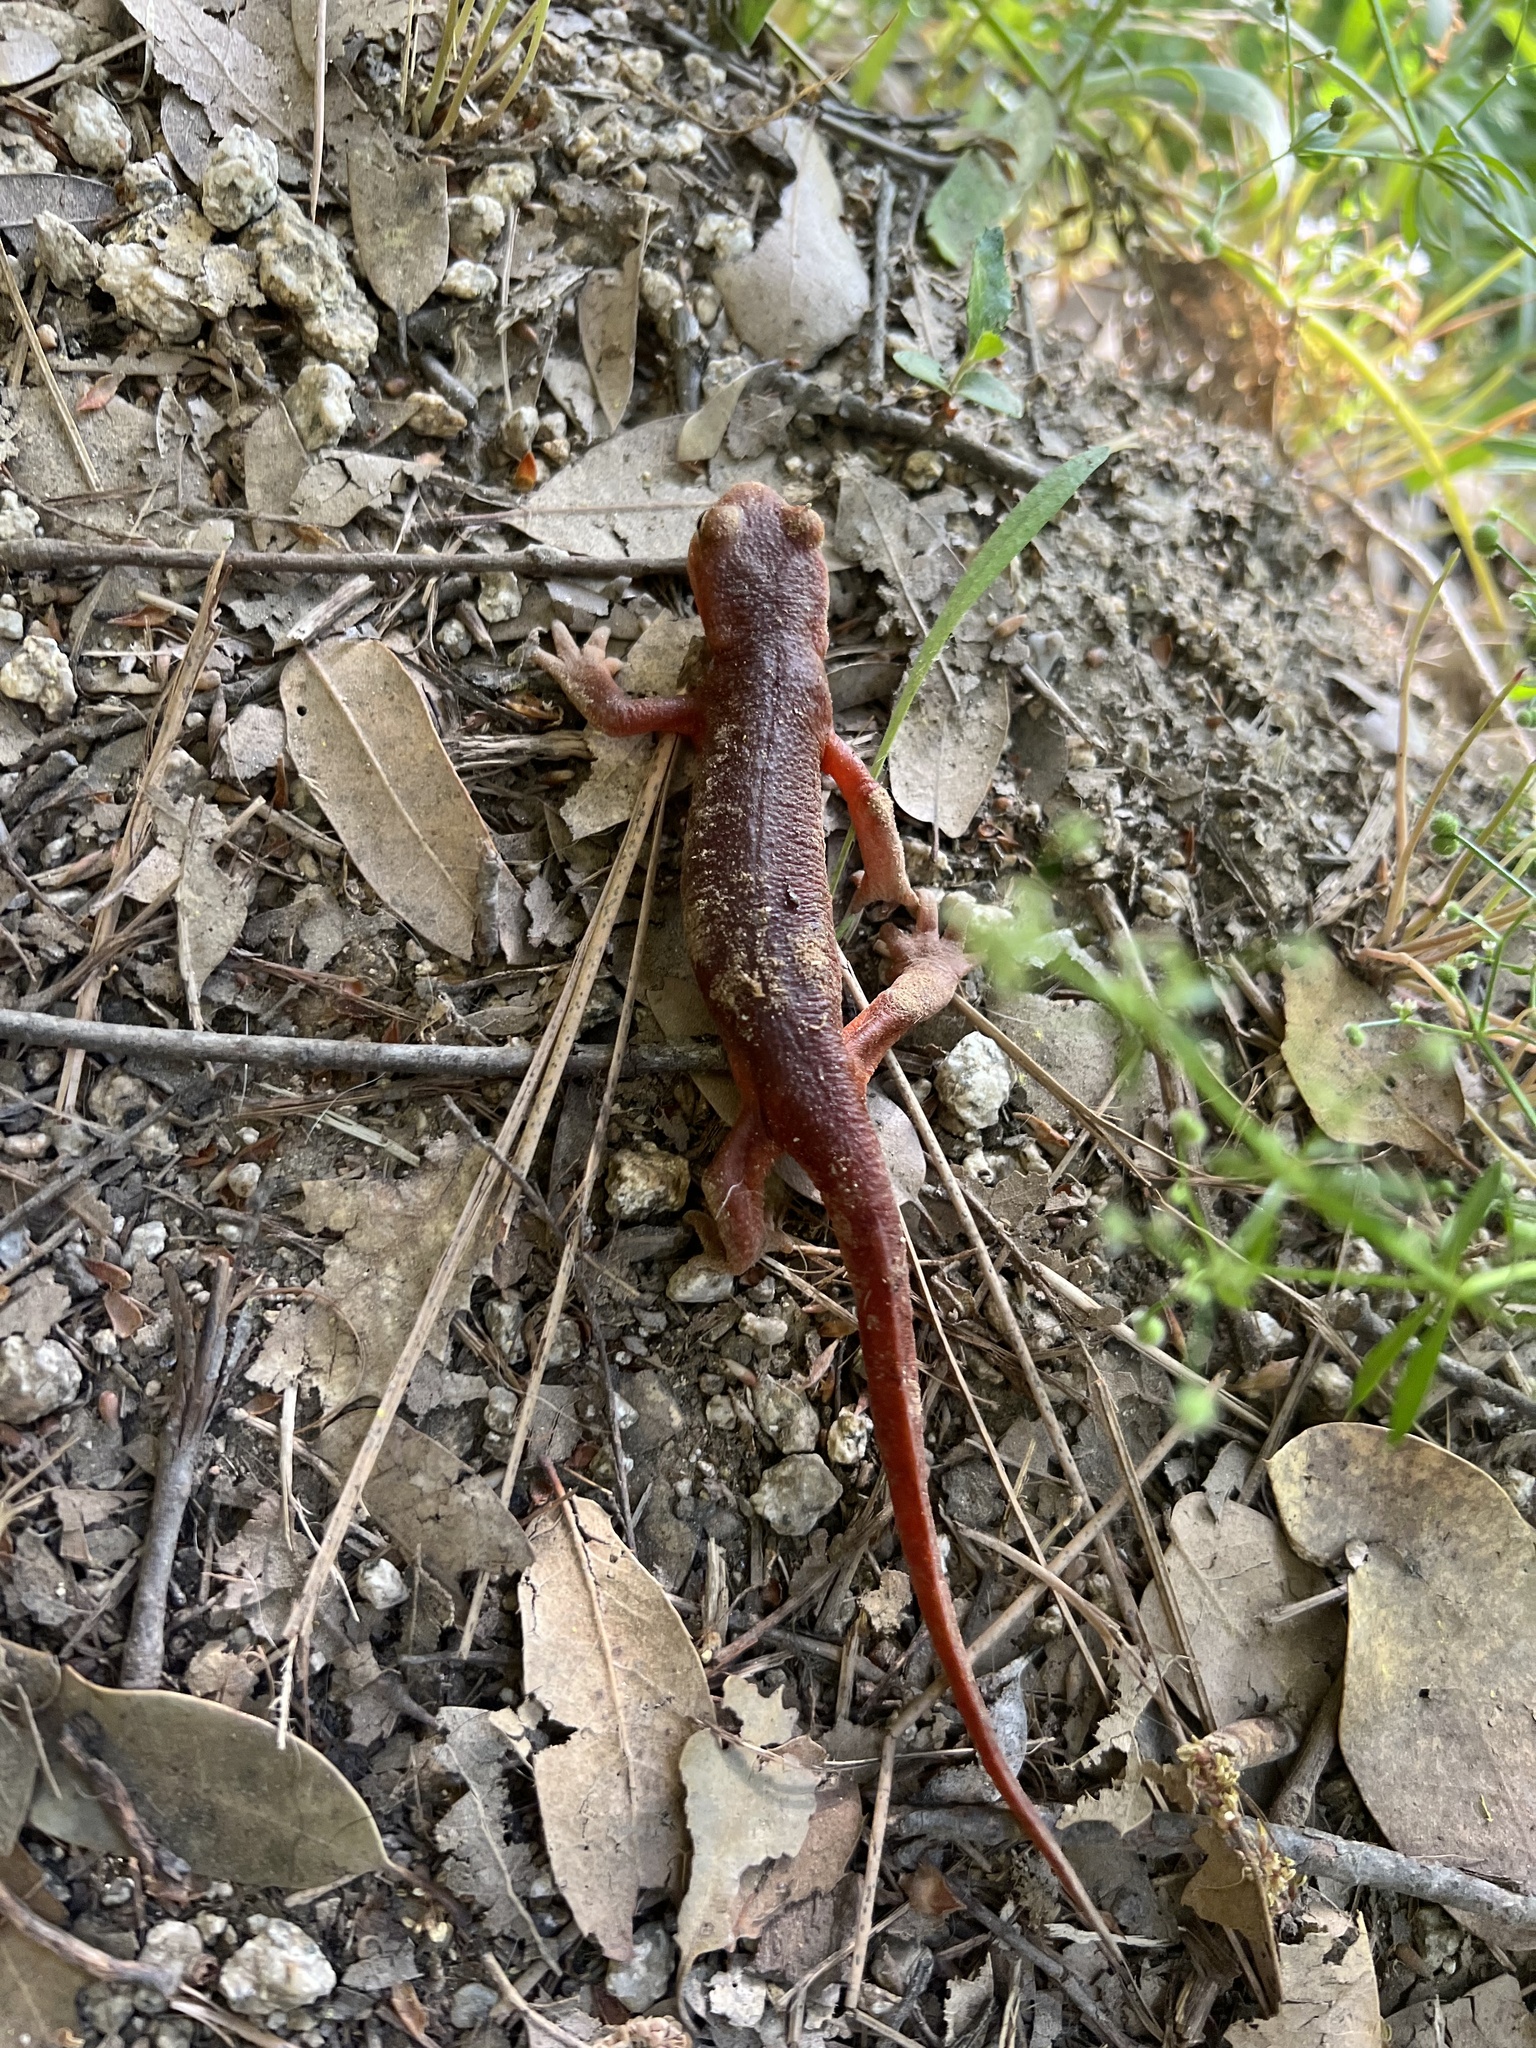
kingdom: Animalia
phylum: Chordata
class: Amphibia
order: Caudata
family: Salamandridae
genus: Taricha
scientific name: Taricha sierrae
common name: Sierra newt
